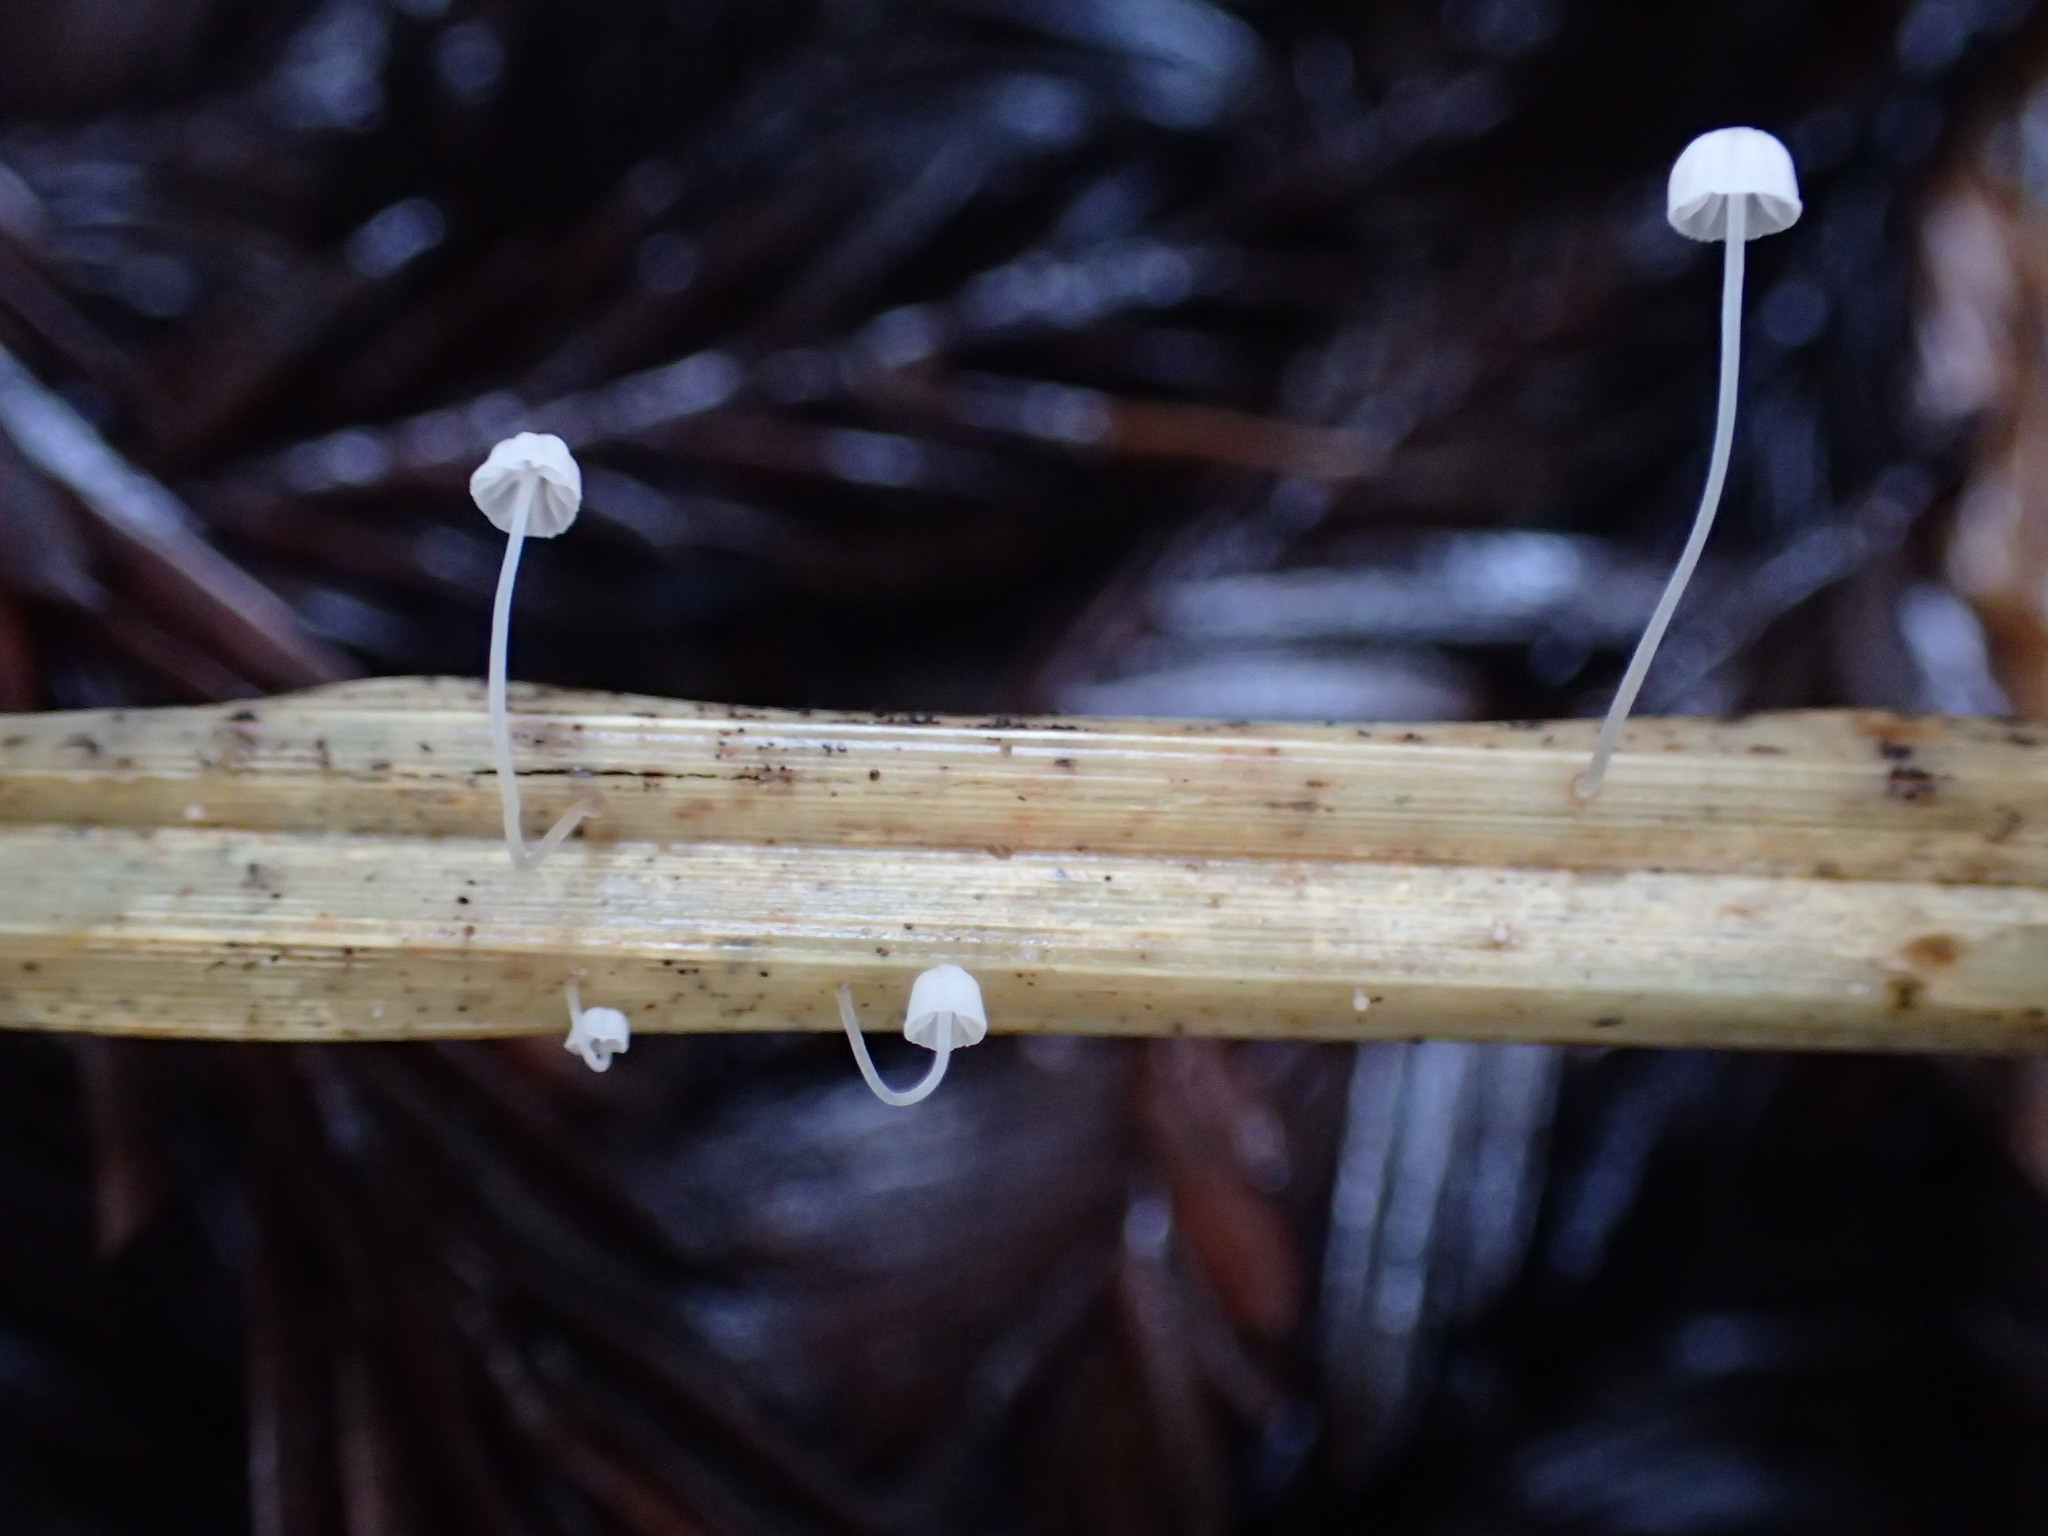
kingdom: Fungi
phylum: Basidiomycota
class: Agaricomycetes
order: Agaricales
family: Mycenaceae
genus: Mycena
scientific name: Mycena culmigena
